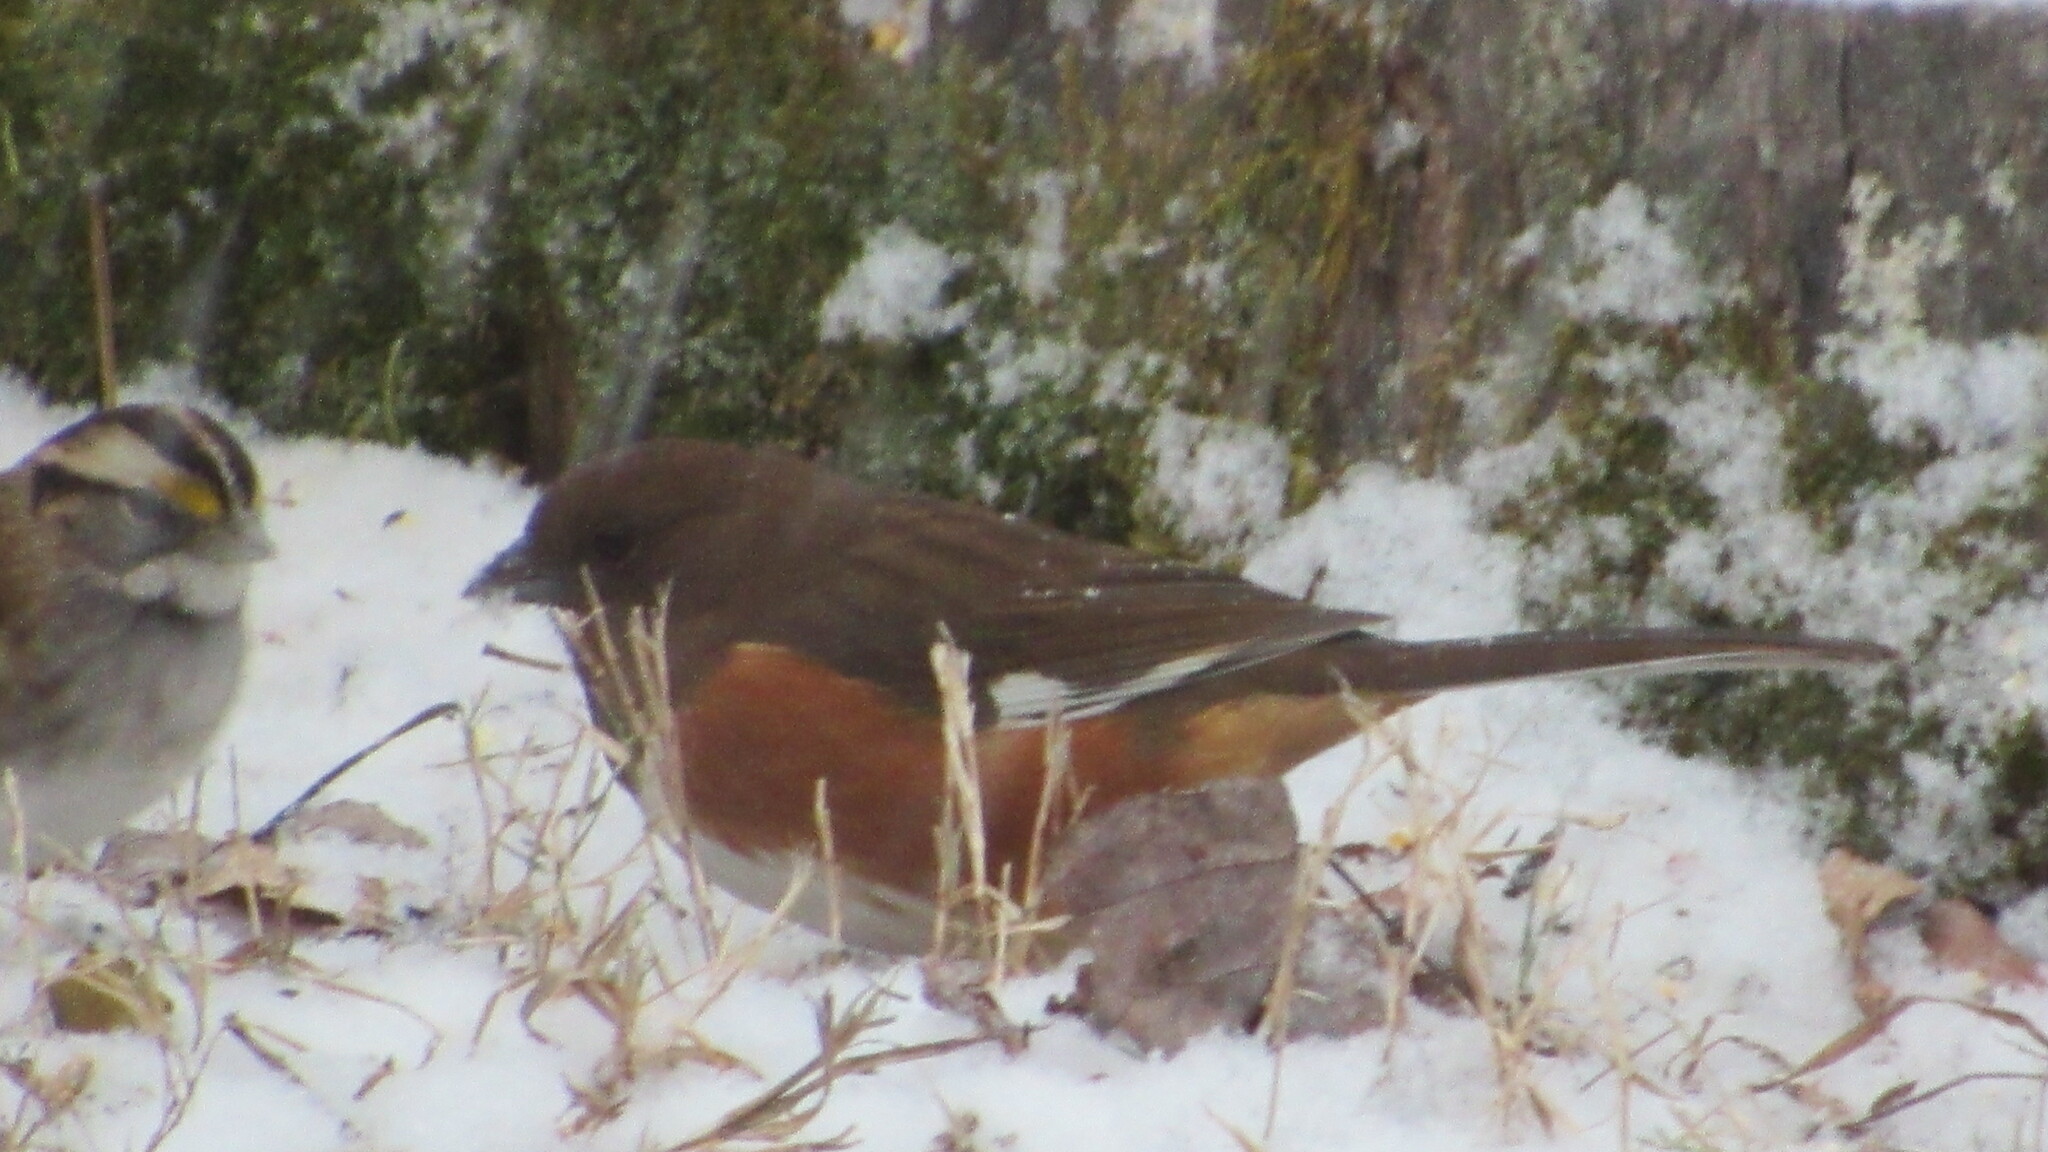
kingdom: Animalia
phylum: Chordata
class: Aves
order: Passeriformes
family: Passerellidae
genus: Pipilo
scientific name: Pipilo erythrophthalmus
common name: Eastern towhee
